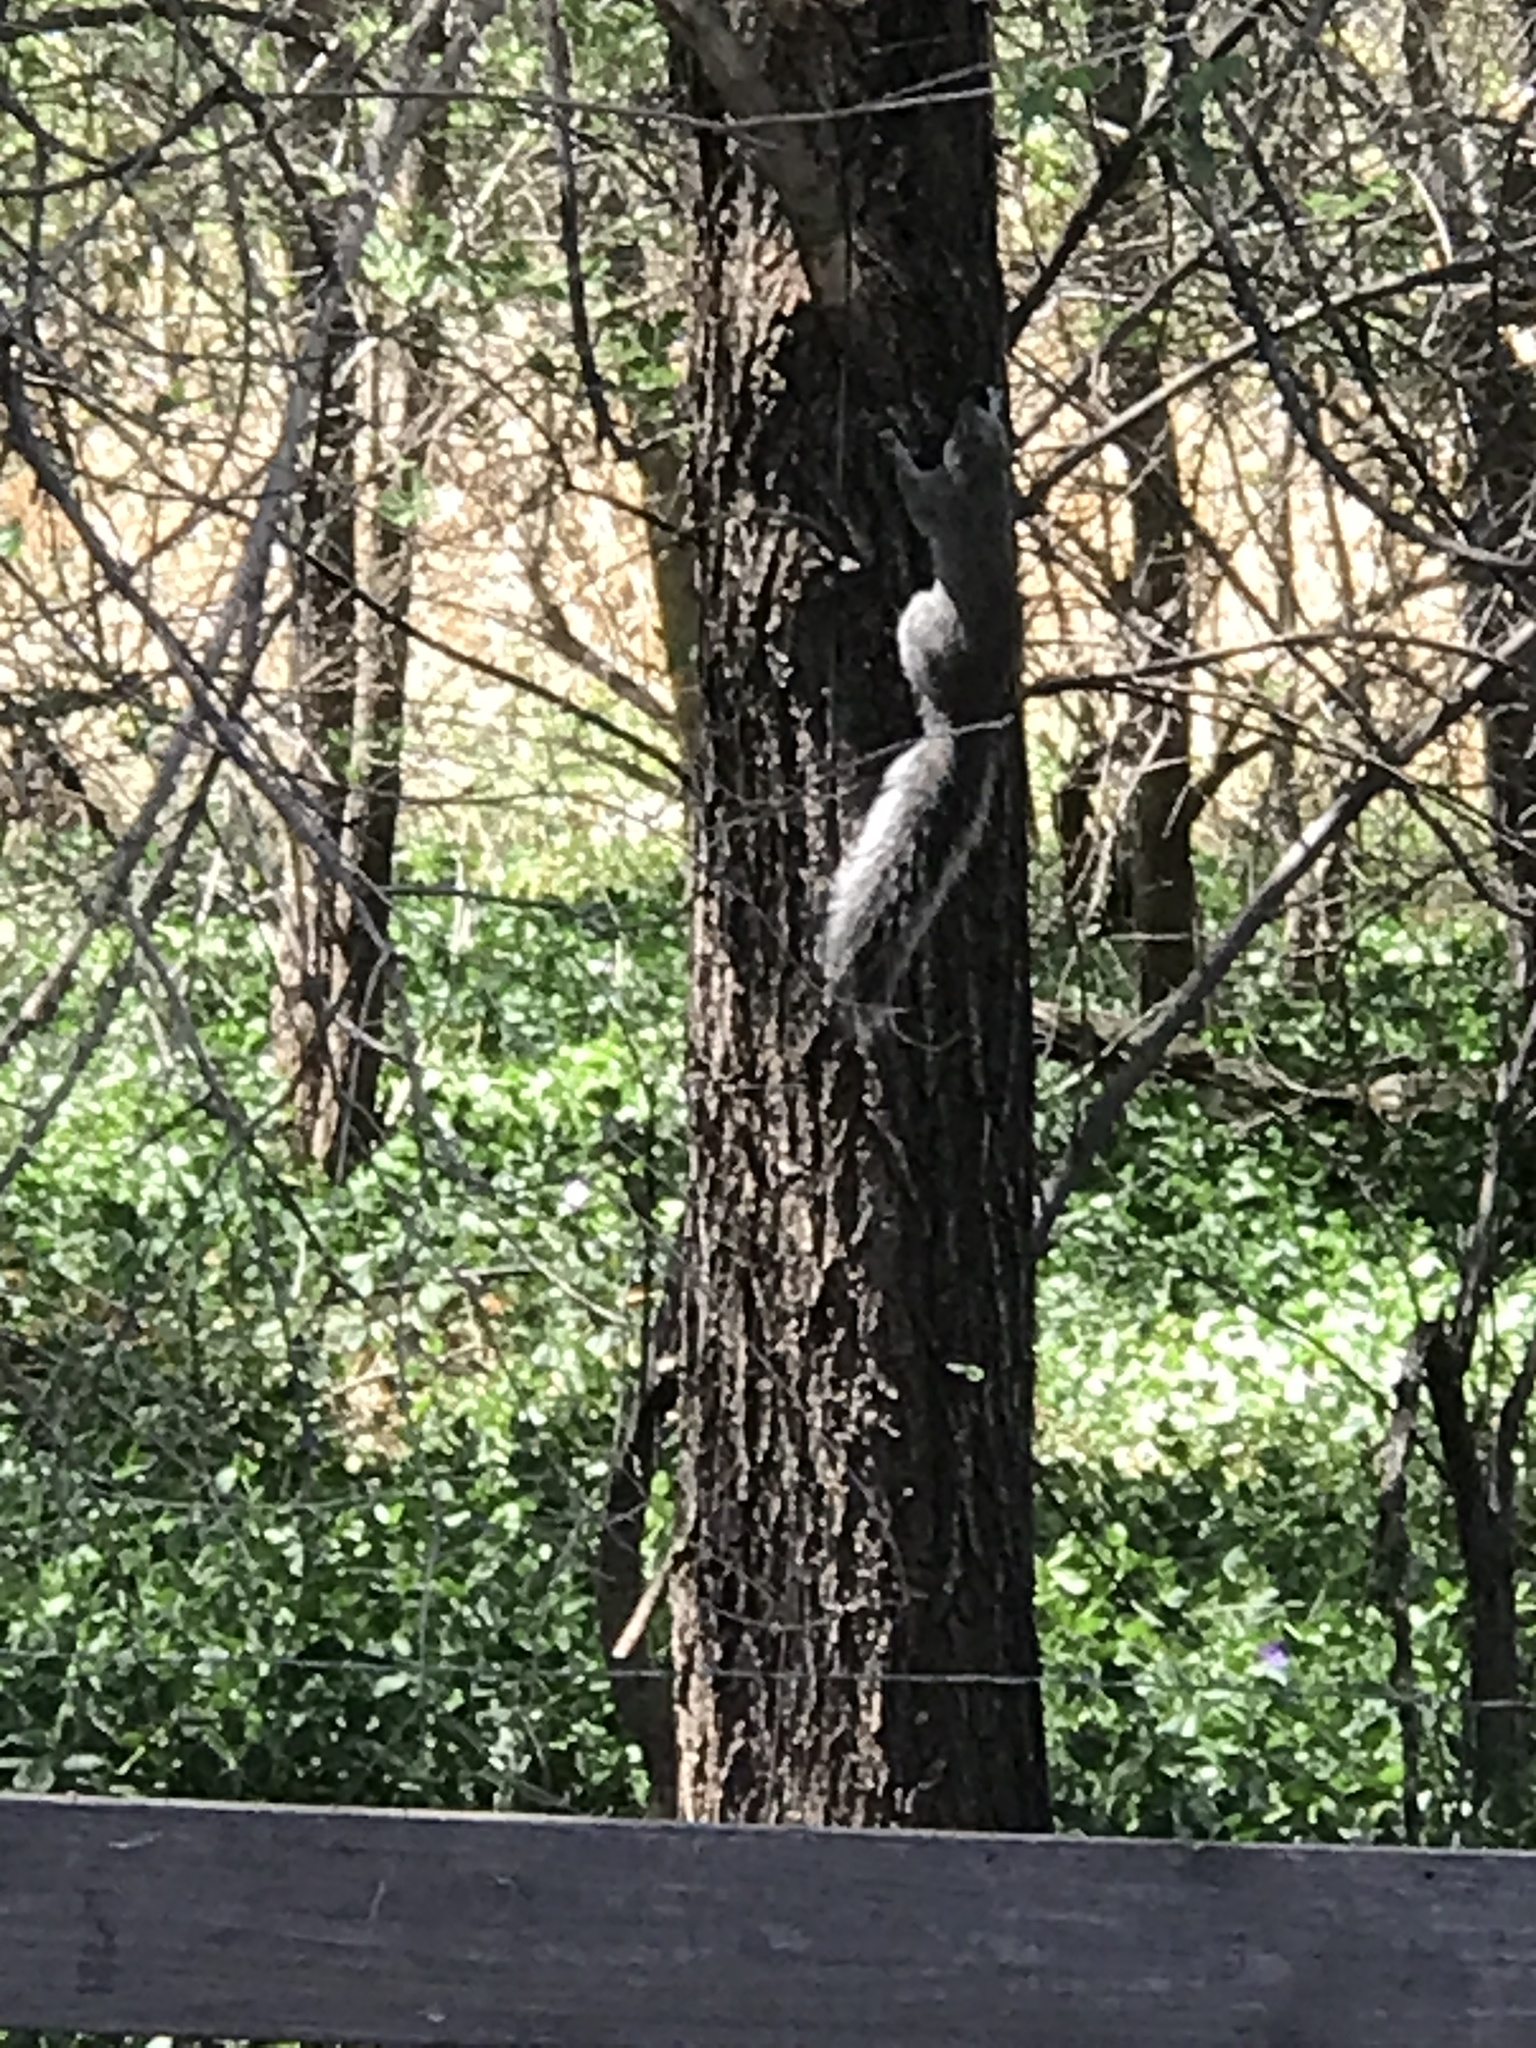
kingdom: Animalia
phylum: Chordata
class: Mammalia
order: Rodentia
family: Sciuridae
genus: Sciurus
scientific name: Sciurus arizonensis
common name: Arizona gray squirrel
